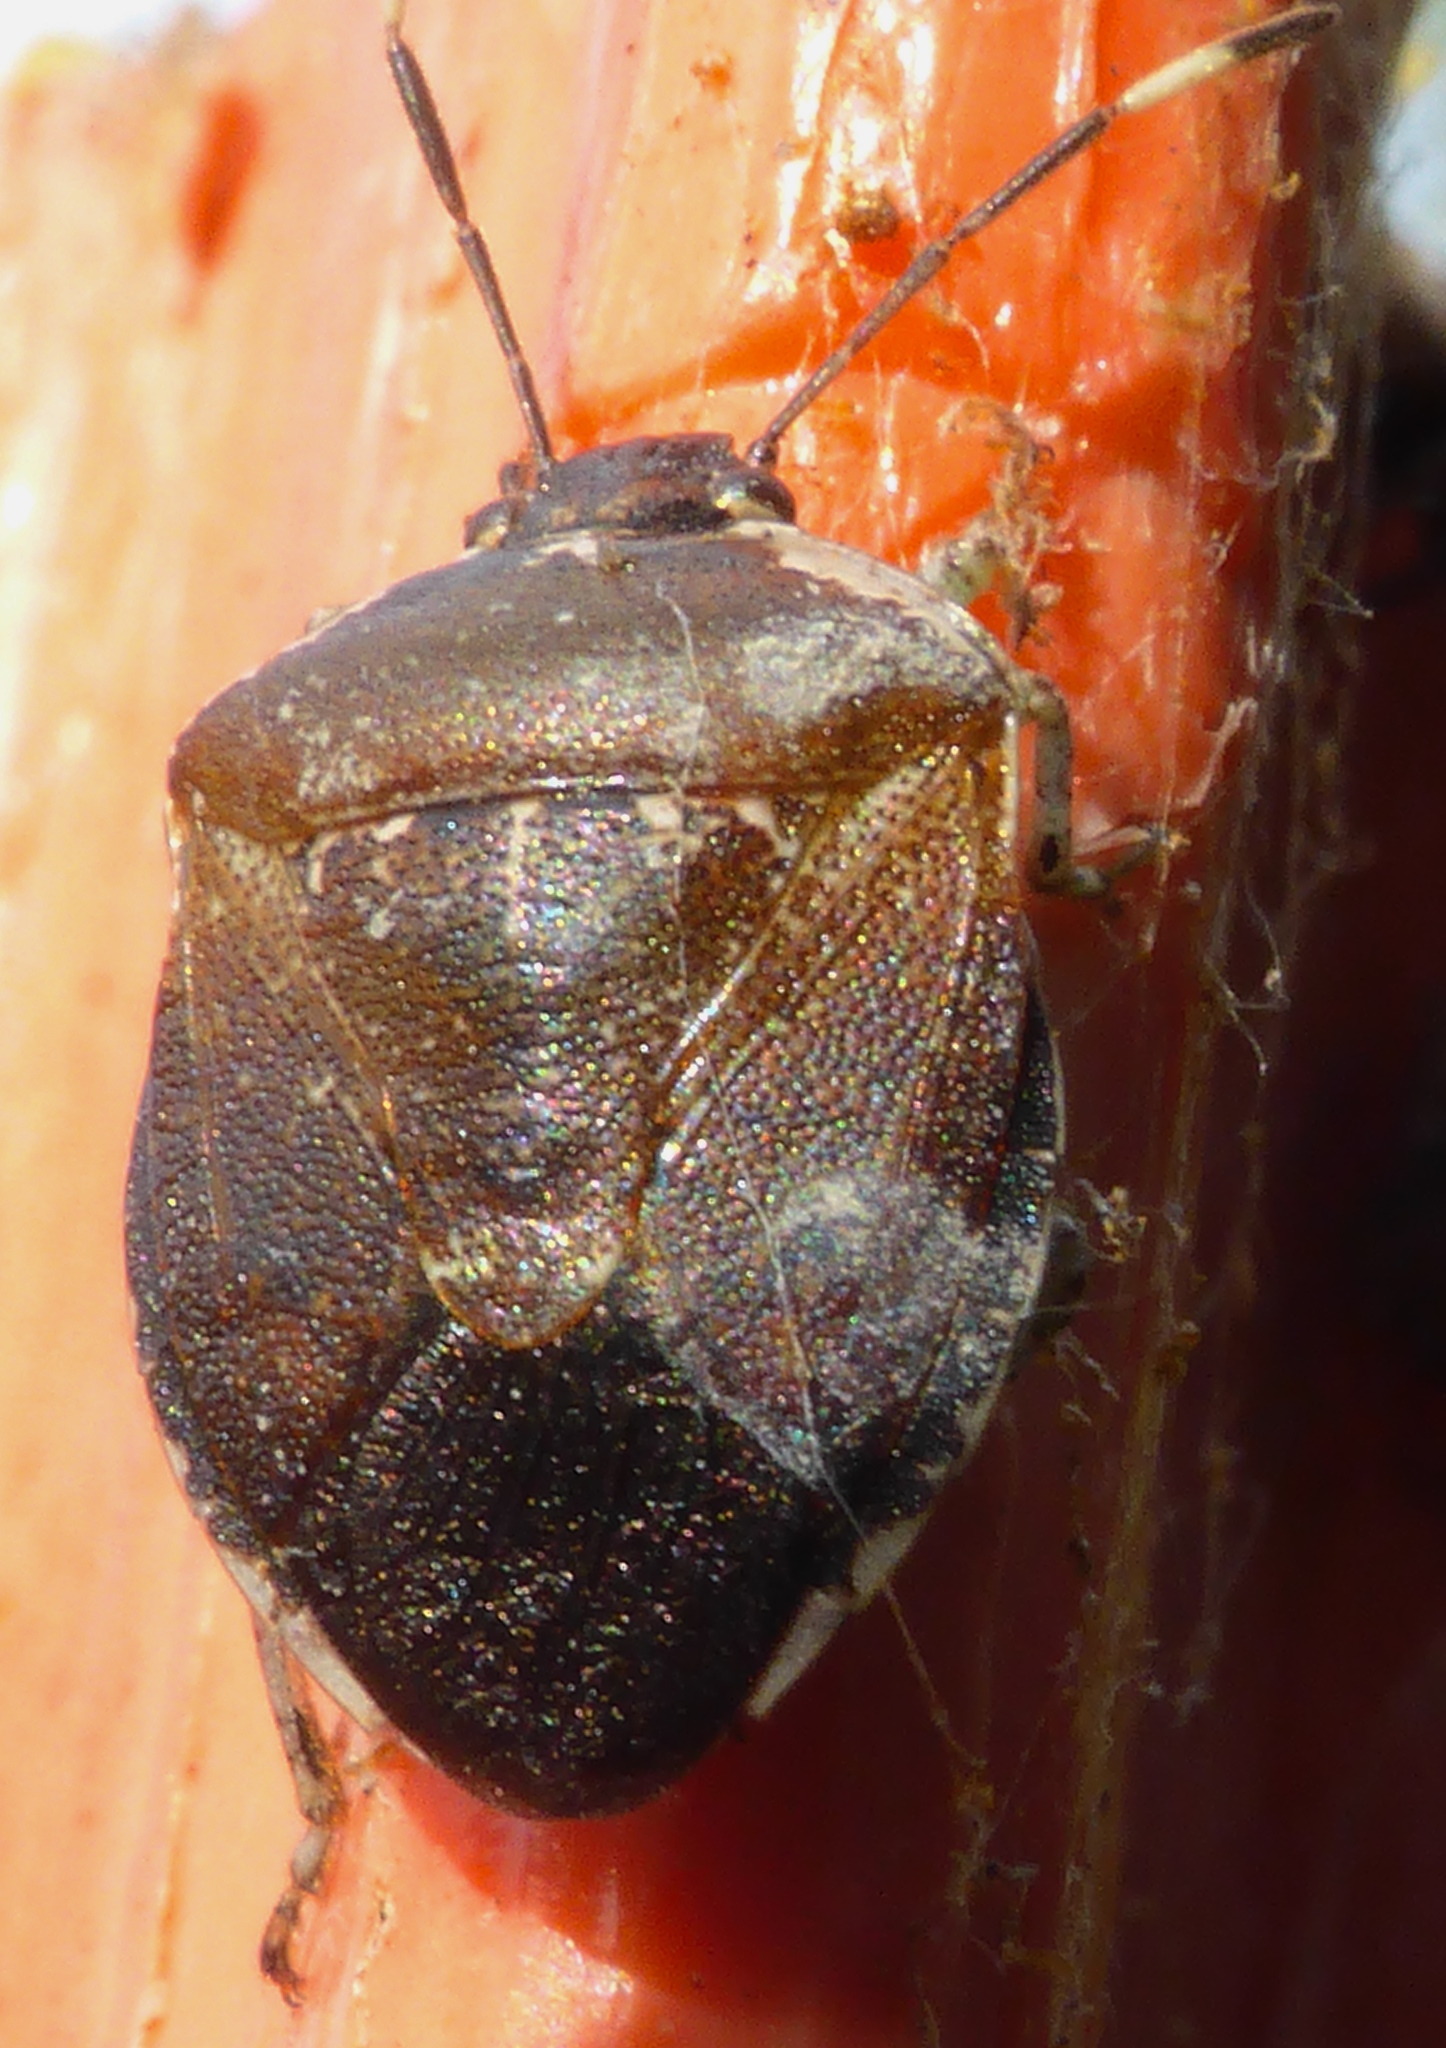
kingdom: Animalia
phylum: Arthropoda
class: Insecta
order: Hemiptera
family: Pentatomidae
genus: Monteithiella
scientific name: Monteithiella
